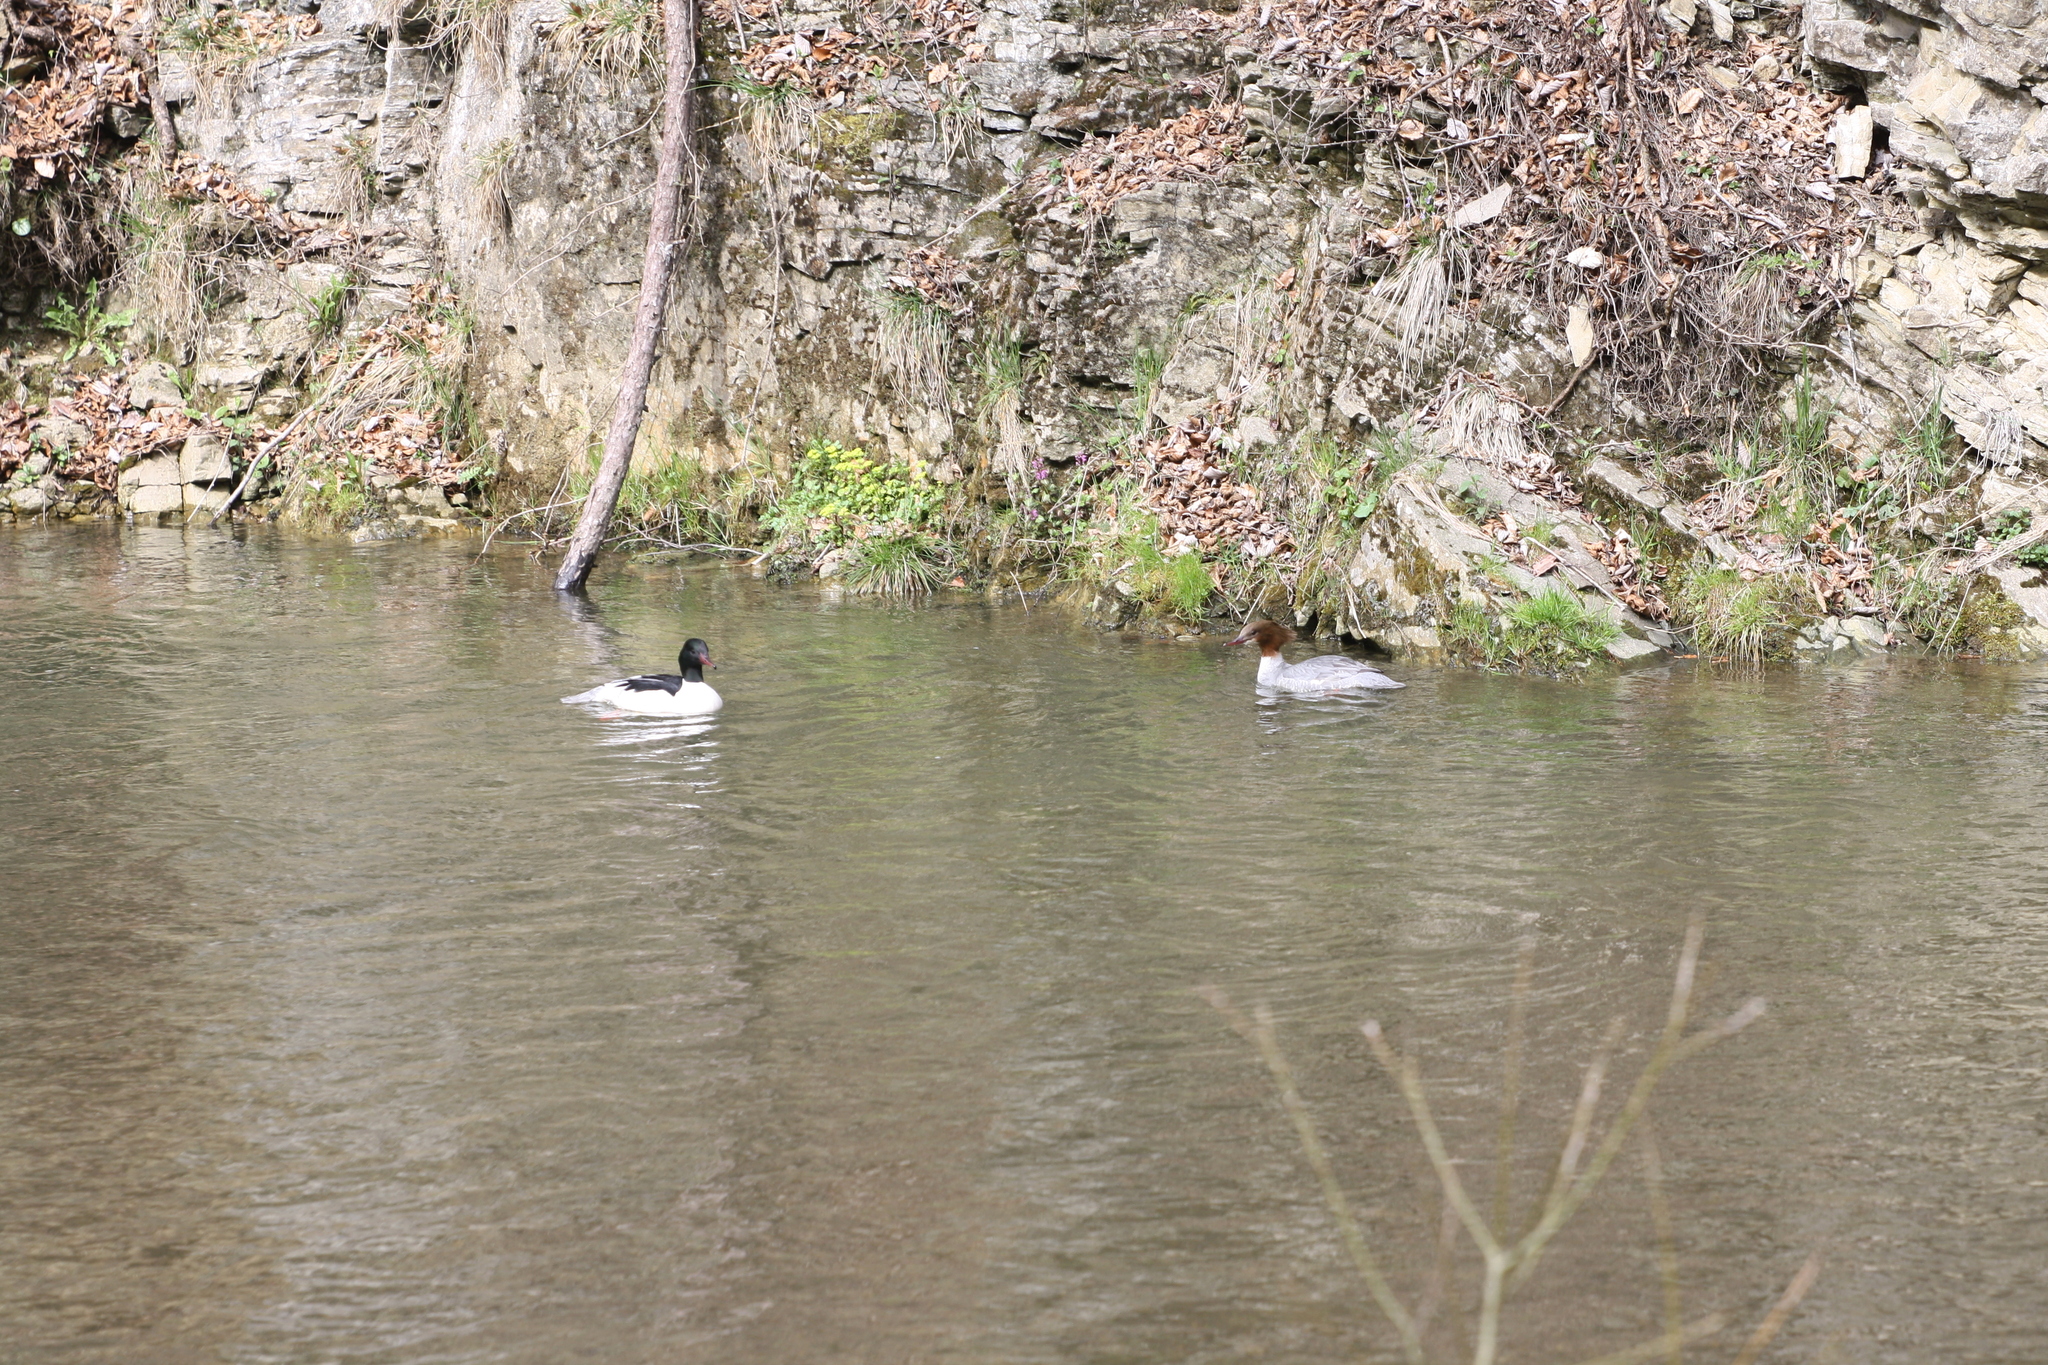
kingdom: Animalia
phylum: Chordata
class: Aves
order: Anseriformes
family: Anatidae
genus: Mergus
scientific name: Mergus merganser
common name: Common merganser
